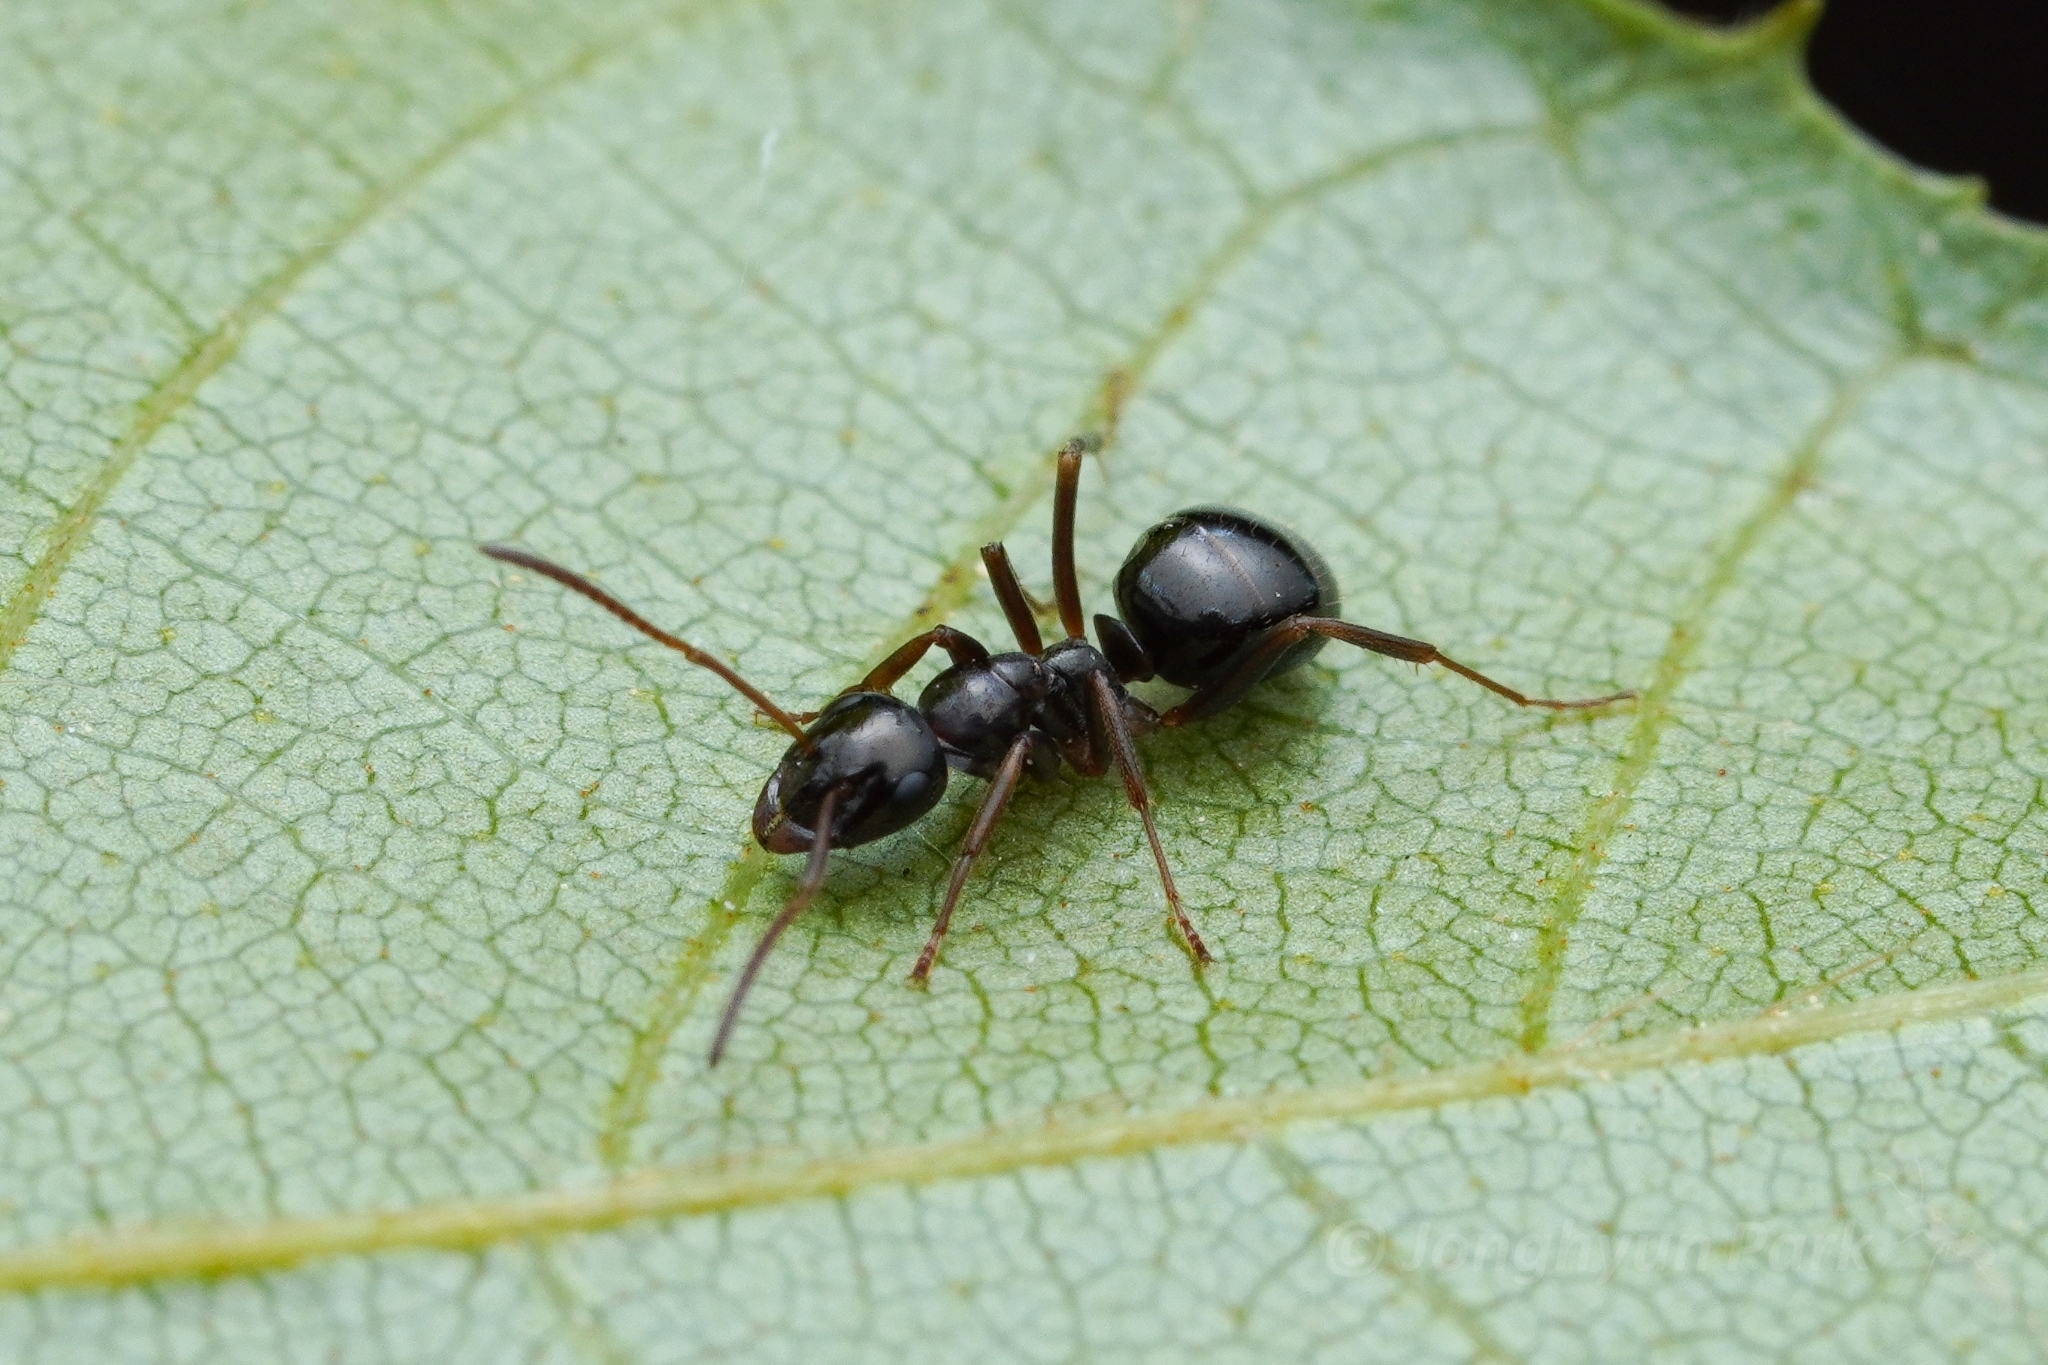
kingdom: Animalia
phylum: Arthropoda
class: Insecta
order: Hymenoptera
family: Formicidae
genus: Formica
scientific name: Formica neogagates
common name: New world black ant
